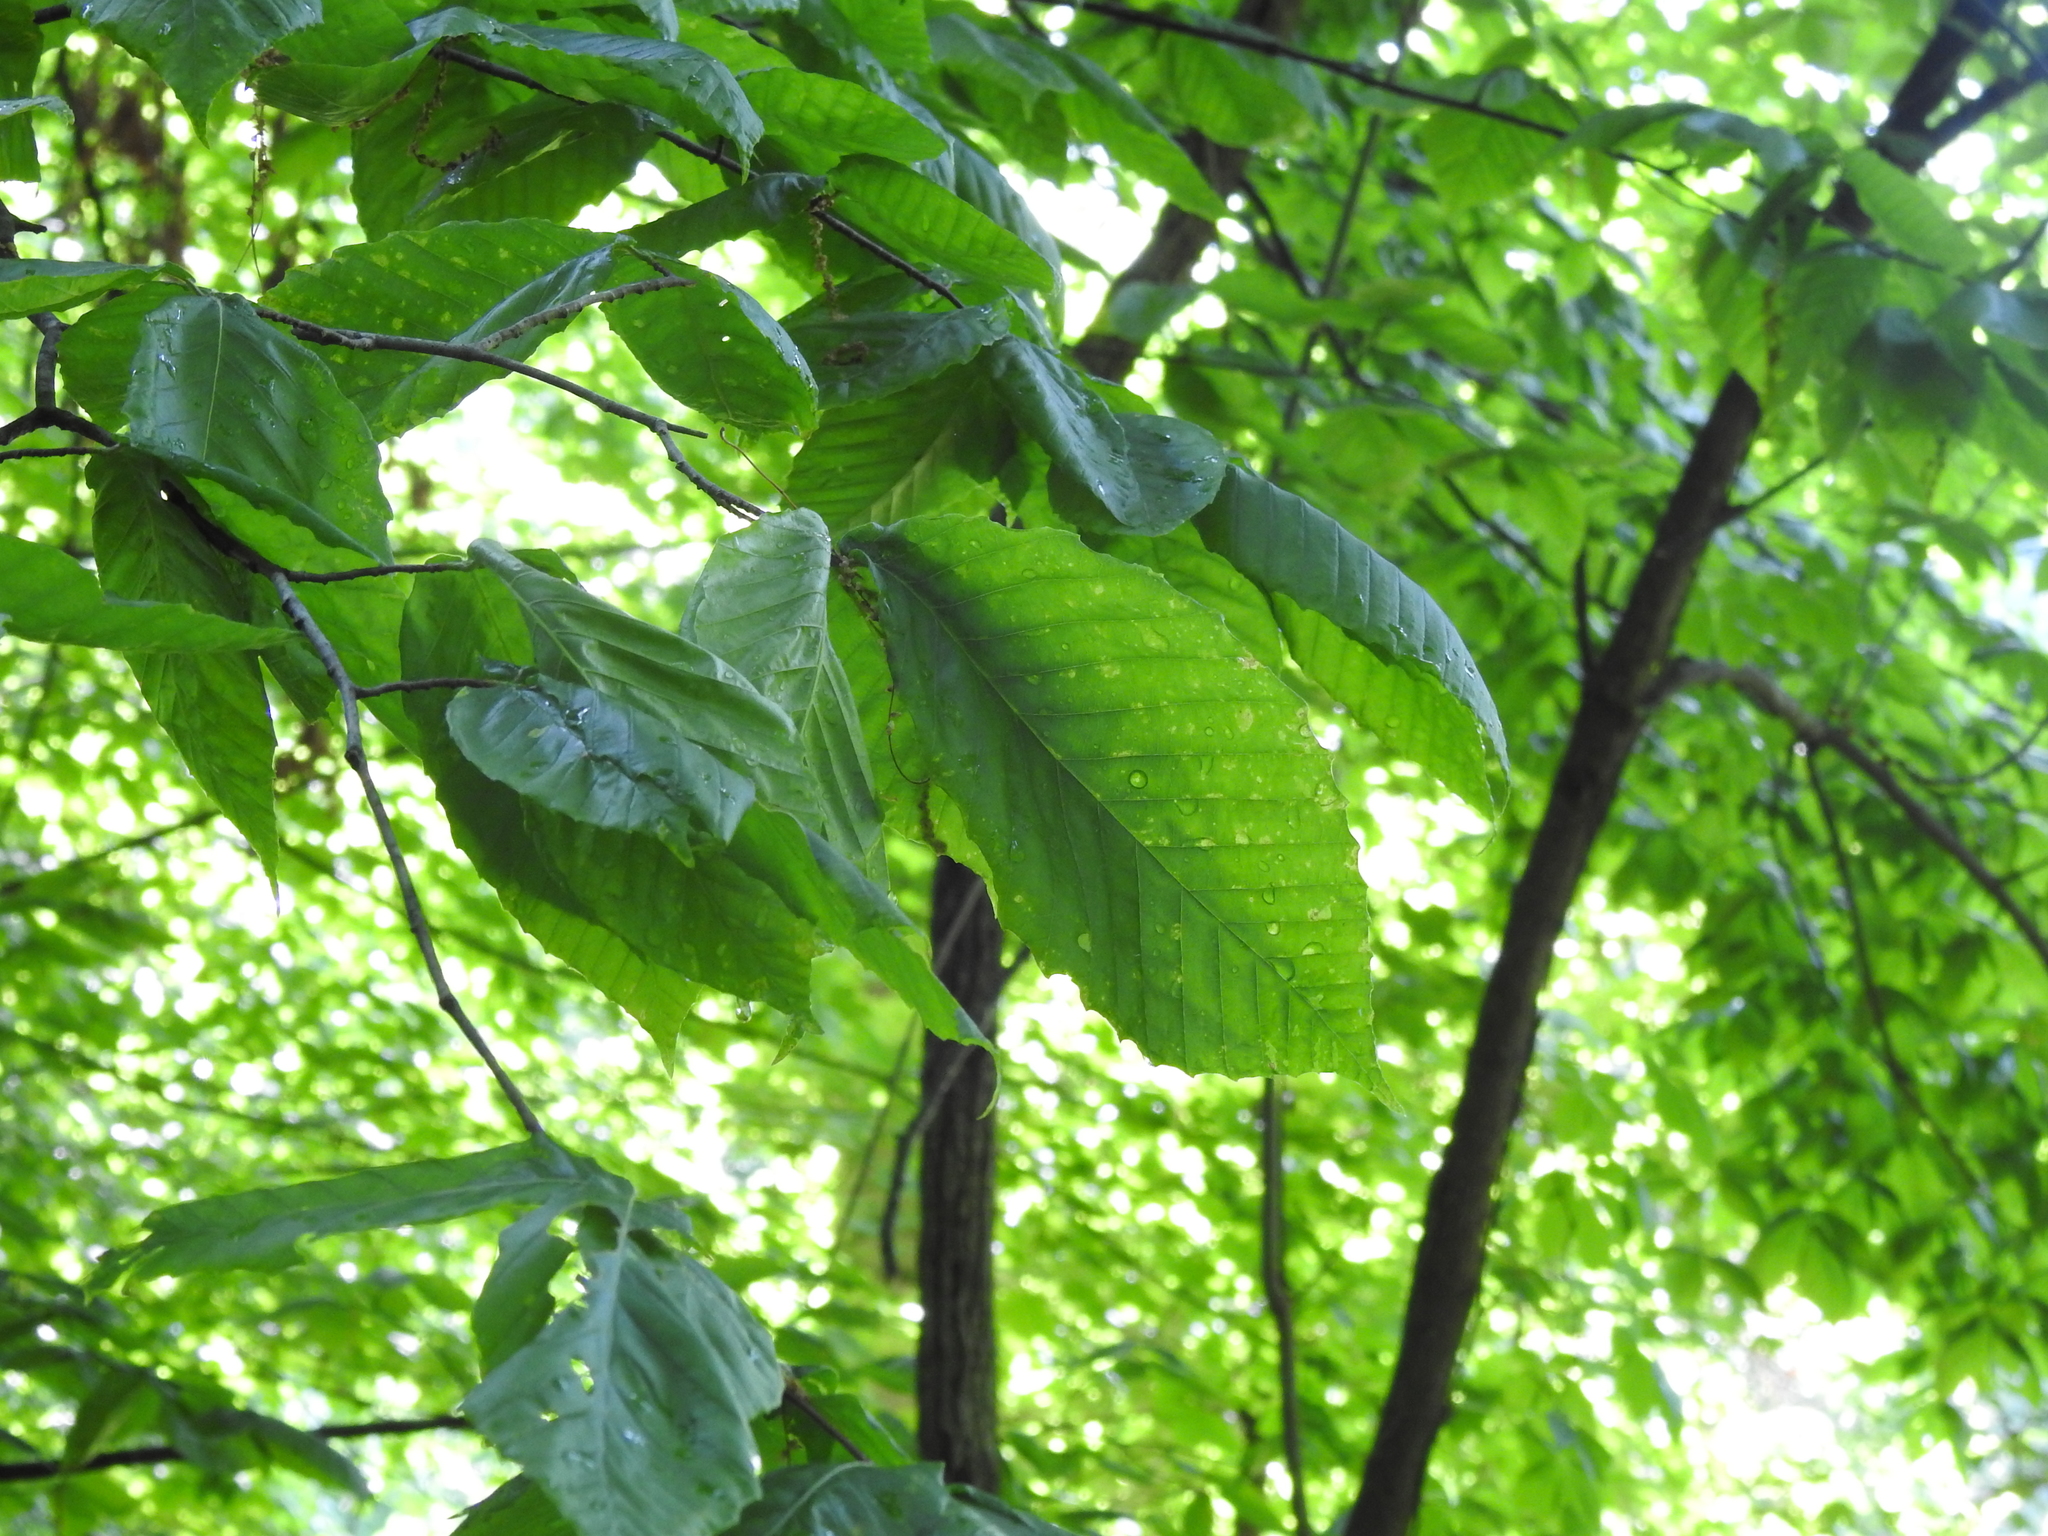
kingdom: Plantae
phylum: Tracheophyta
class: Magnoliopsida
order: Fagales
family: Fagaceae
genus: Fagus
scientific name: Fagus grandifolia
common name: American beech
